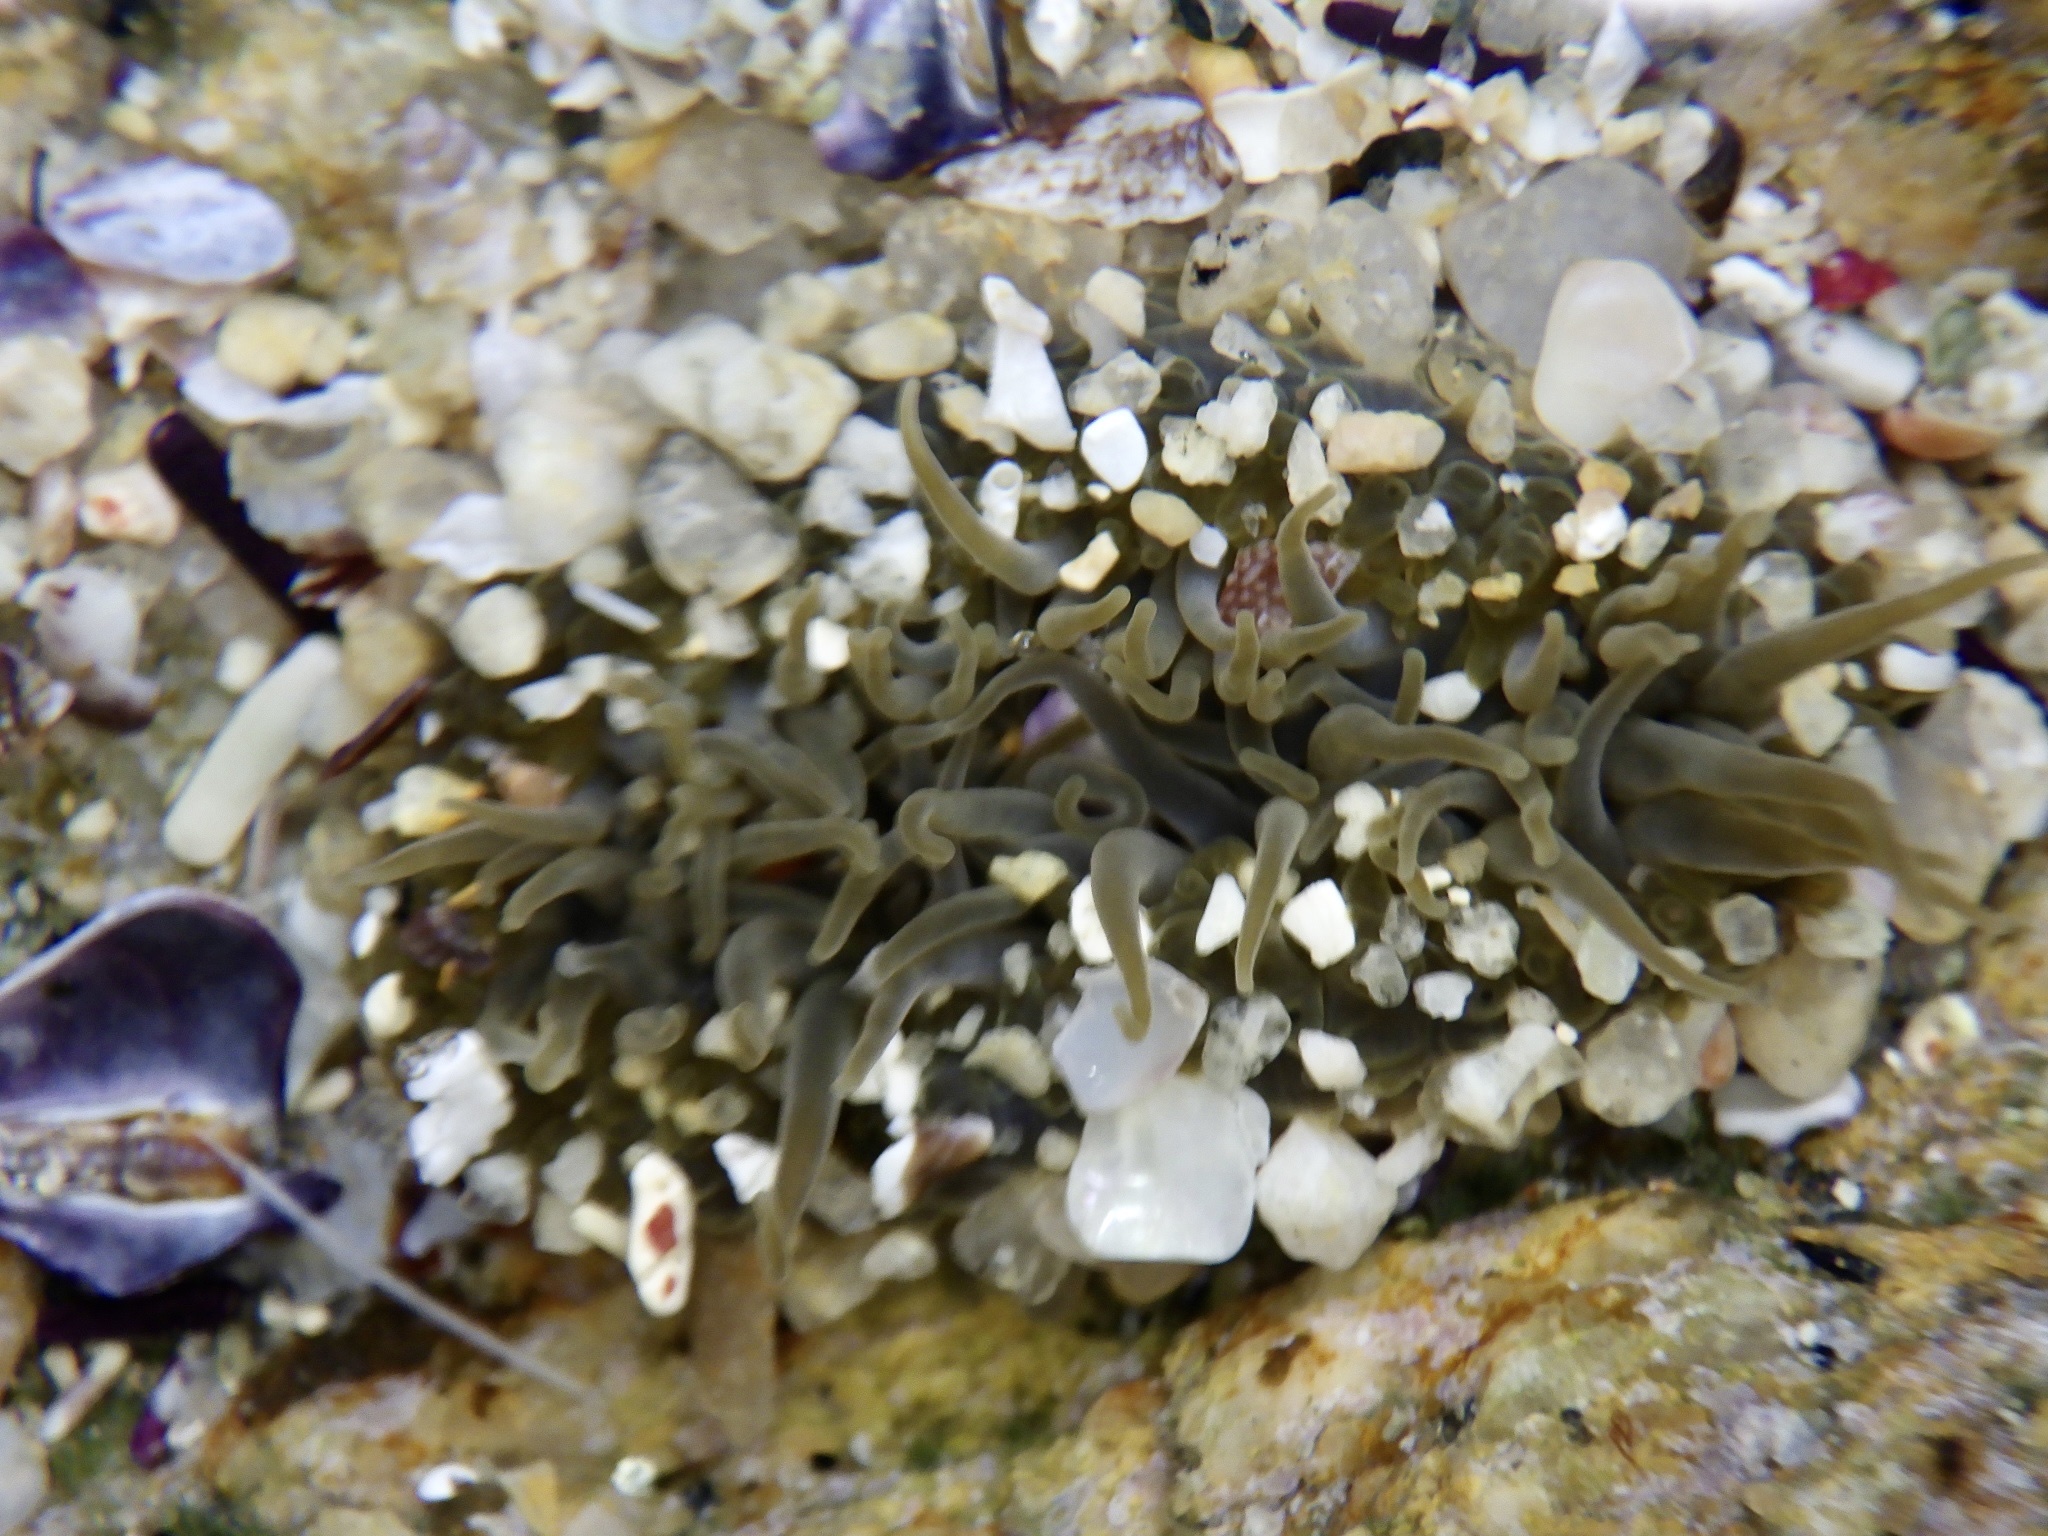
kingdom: Animalia
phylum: Cnidaria
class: Anthozoa
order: Actiniaria
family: Actiniidae
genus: Anthopleura
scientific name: Anthopleura inornata
